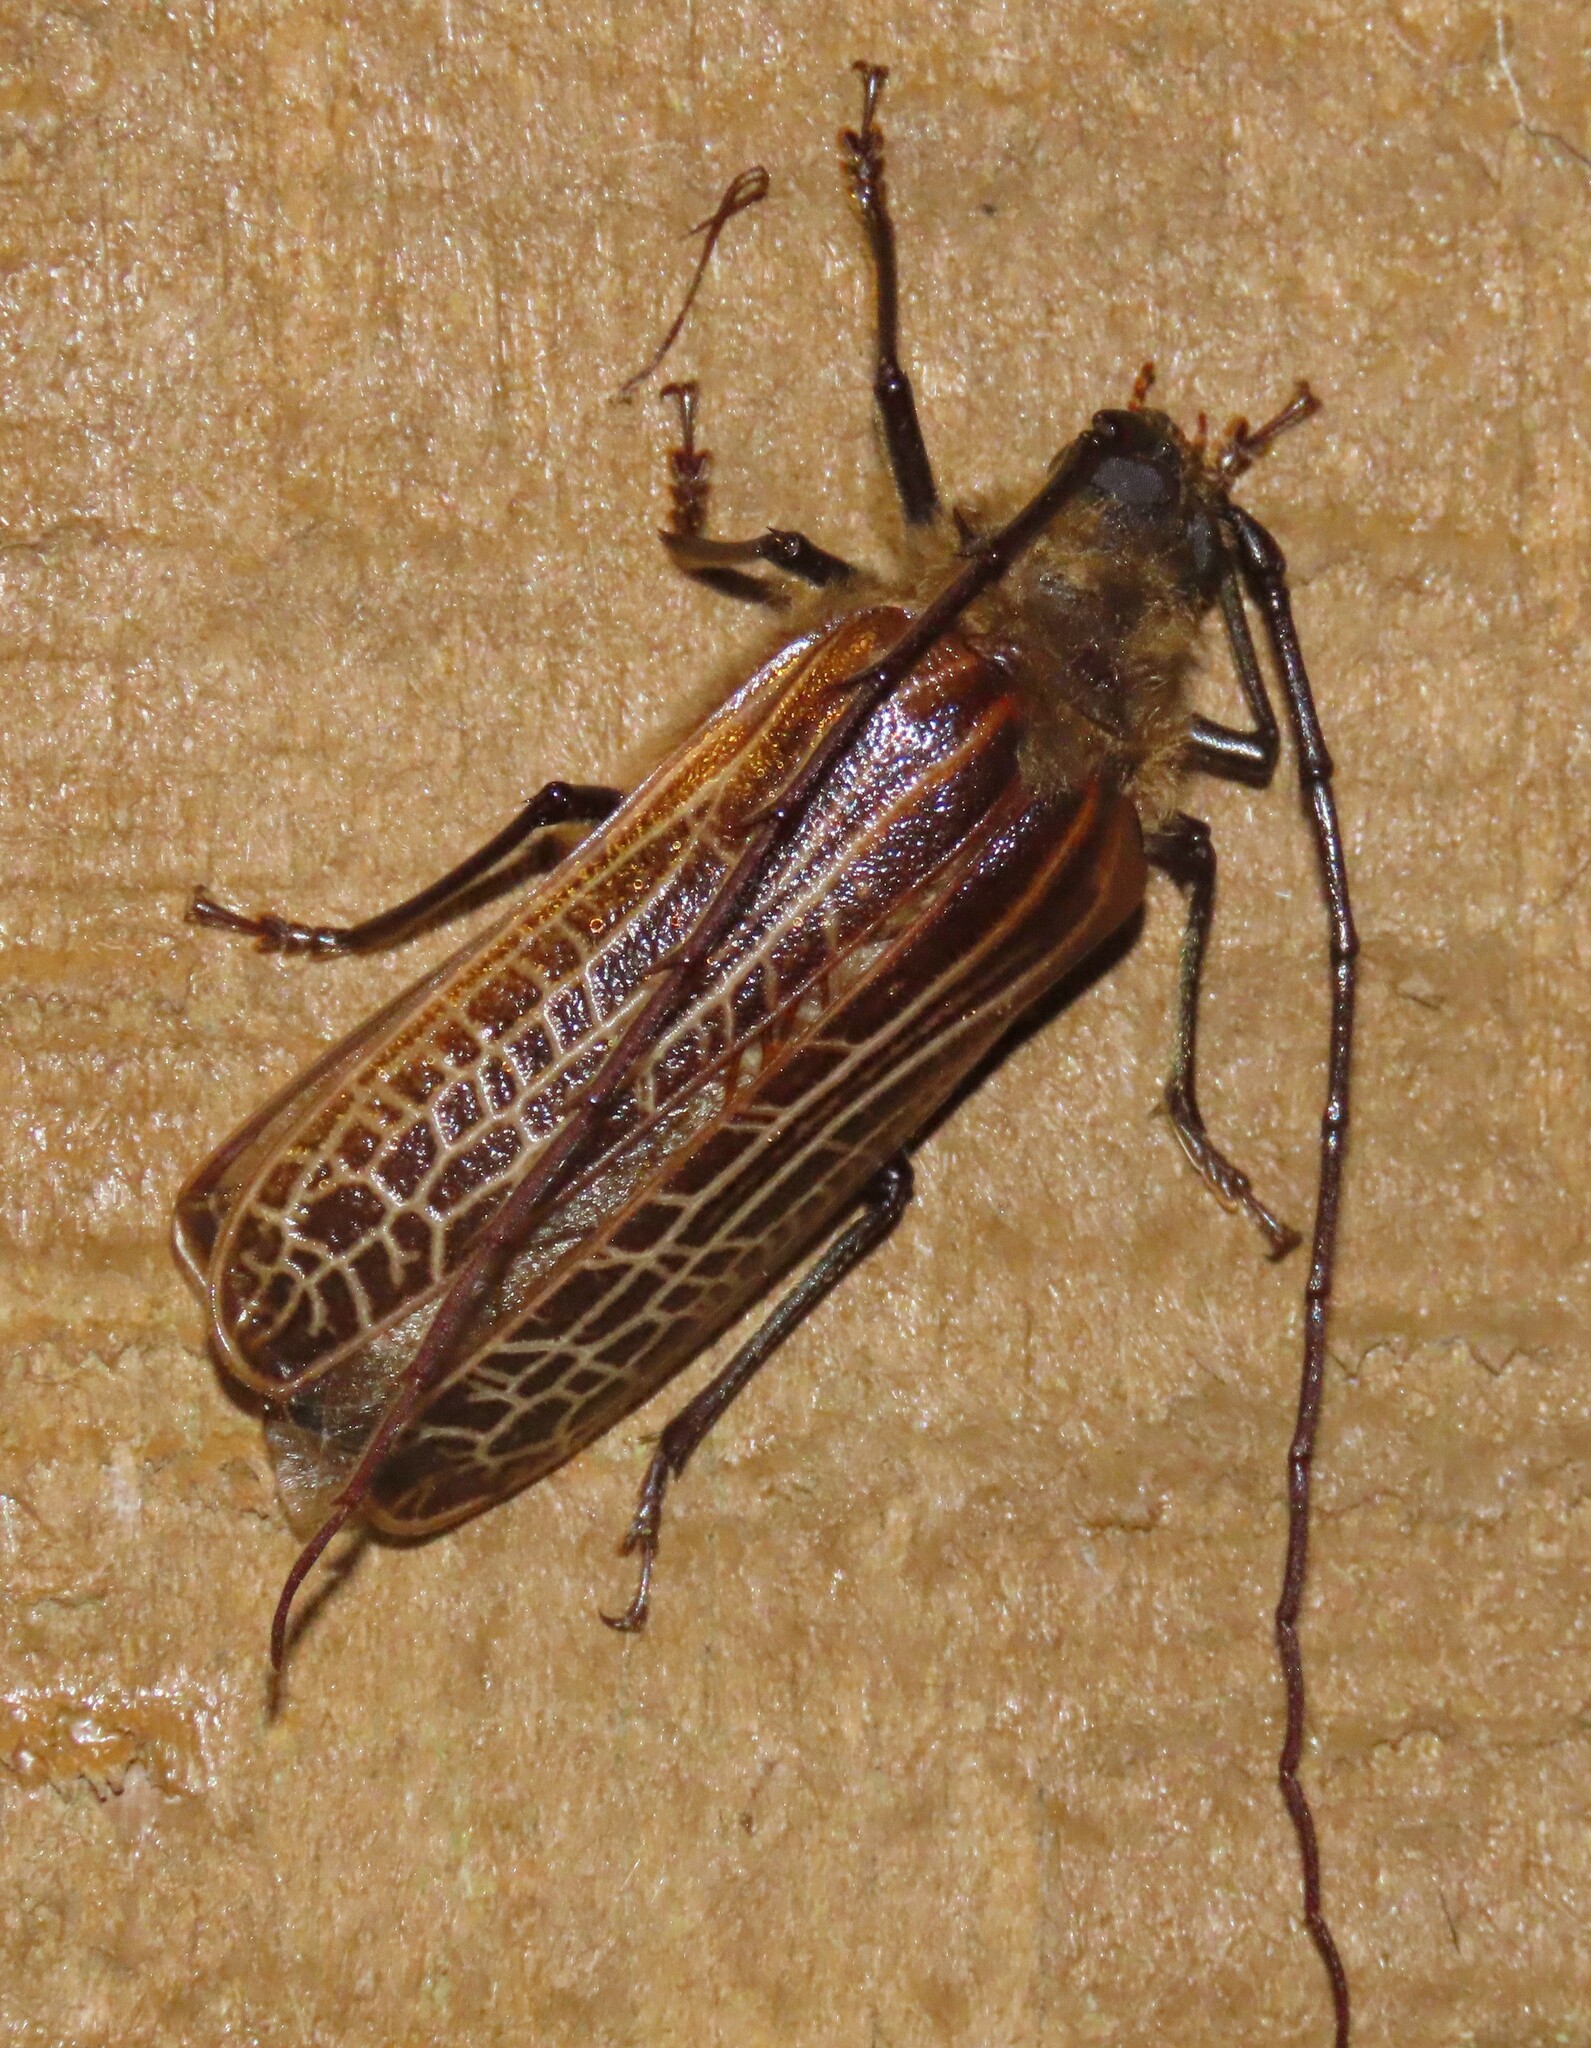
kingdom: Animalia
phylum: Arthropoda
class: Insecta
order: Coleoptera
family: Cerambycidae
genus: Prionoplus
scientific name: Prionoplus reticularis
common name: Huhu beetle
